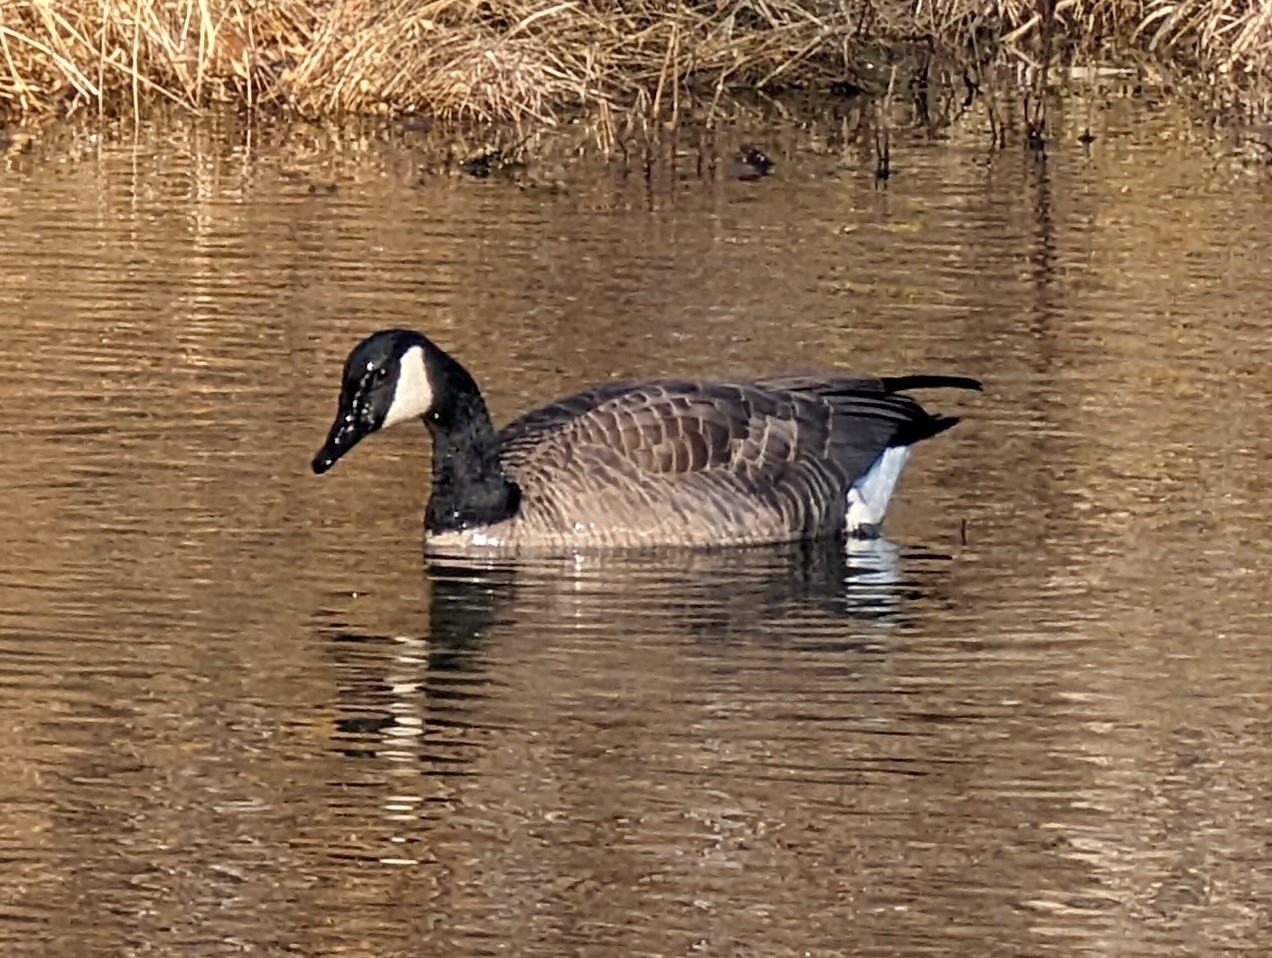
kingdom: Animalia
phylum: Chordata
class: Aves
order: Anseriformes
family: Anatidae
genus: Branta
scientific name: Branta canadensis
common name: Canada goose
